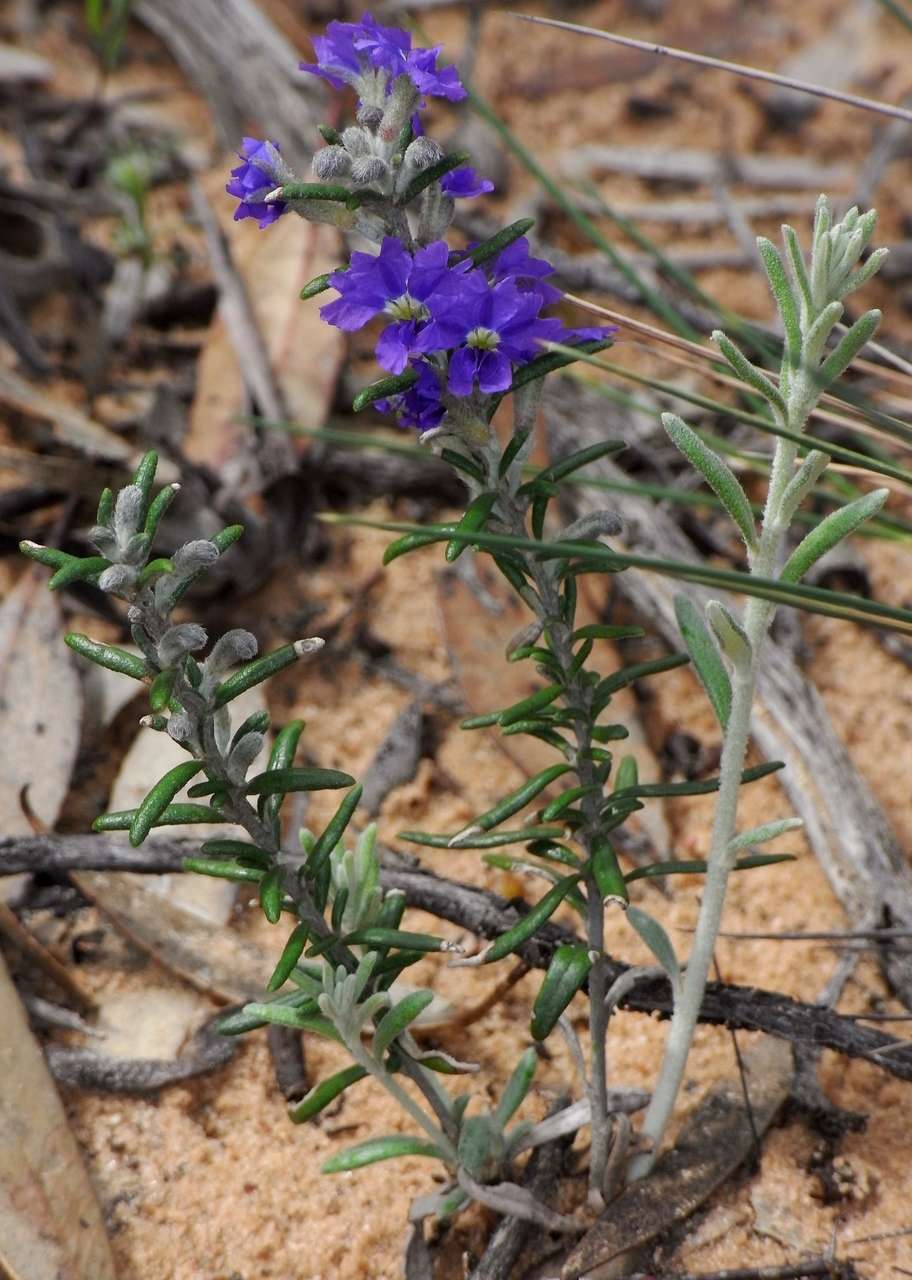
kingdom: Plantae
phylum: Tracheophyta
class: Magnoliopsida
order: Asterales
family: Goodeniaceae
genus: Dampiera
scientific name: Dampiera rosmarinifolia
